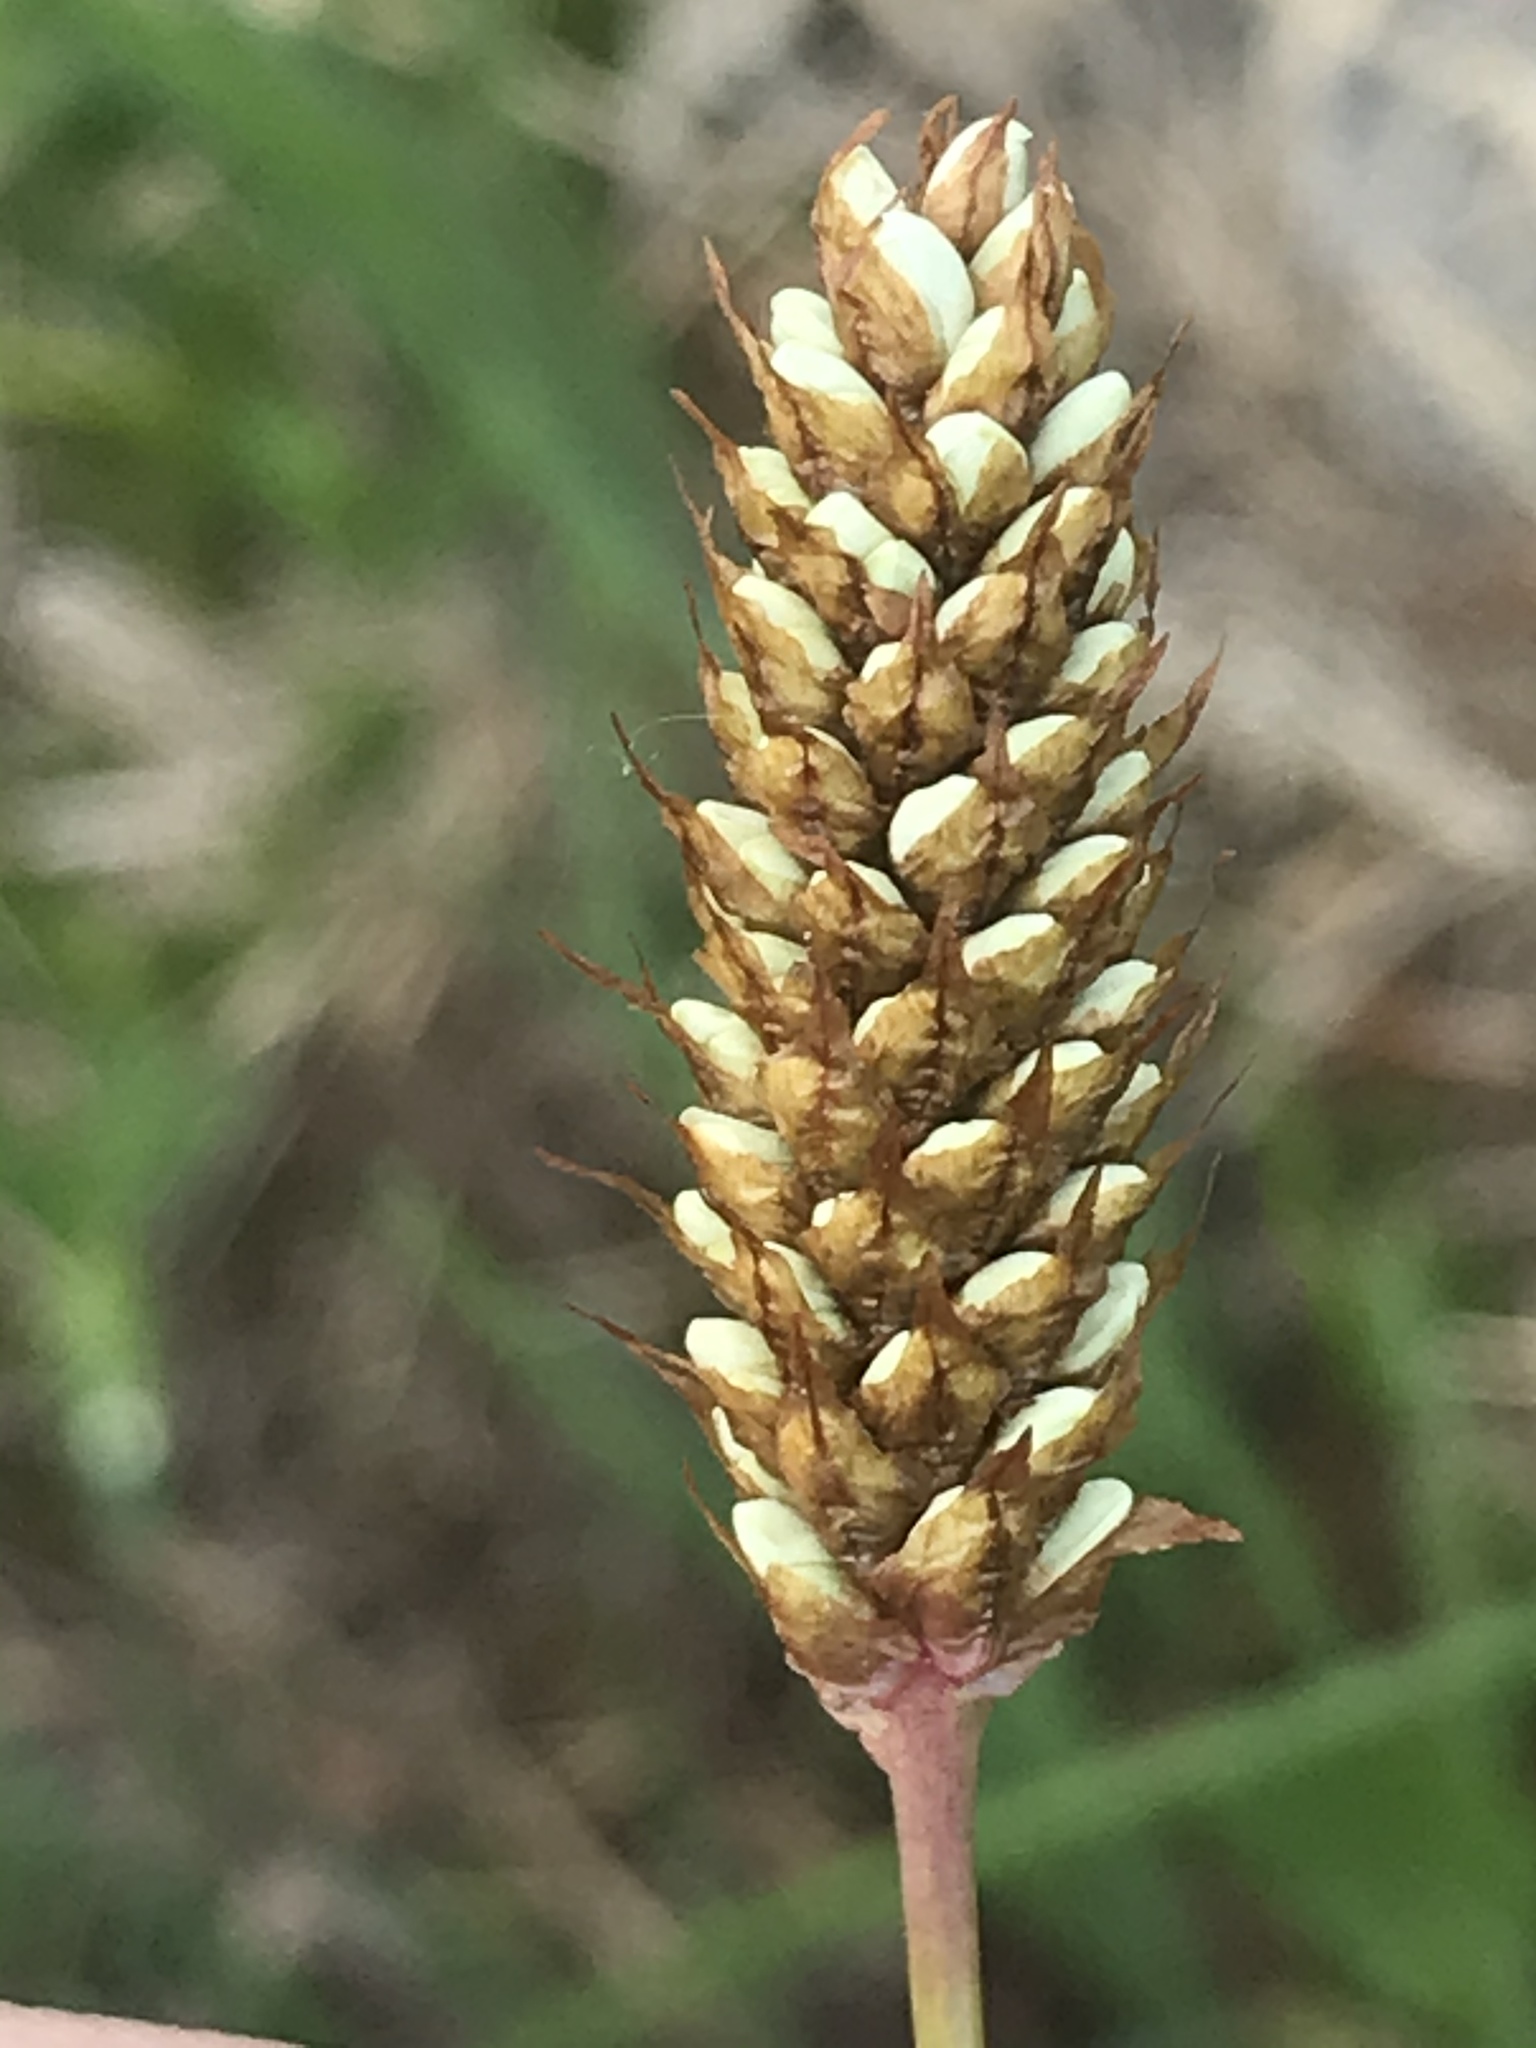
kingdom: Plantae
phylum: Tracheophyta
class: Magnoliopsida
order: Caryophyllales
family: Polygonaceae
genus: Bistorta
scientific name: Bistorta bistortoides
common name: American bistort
